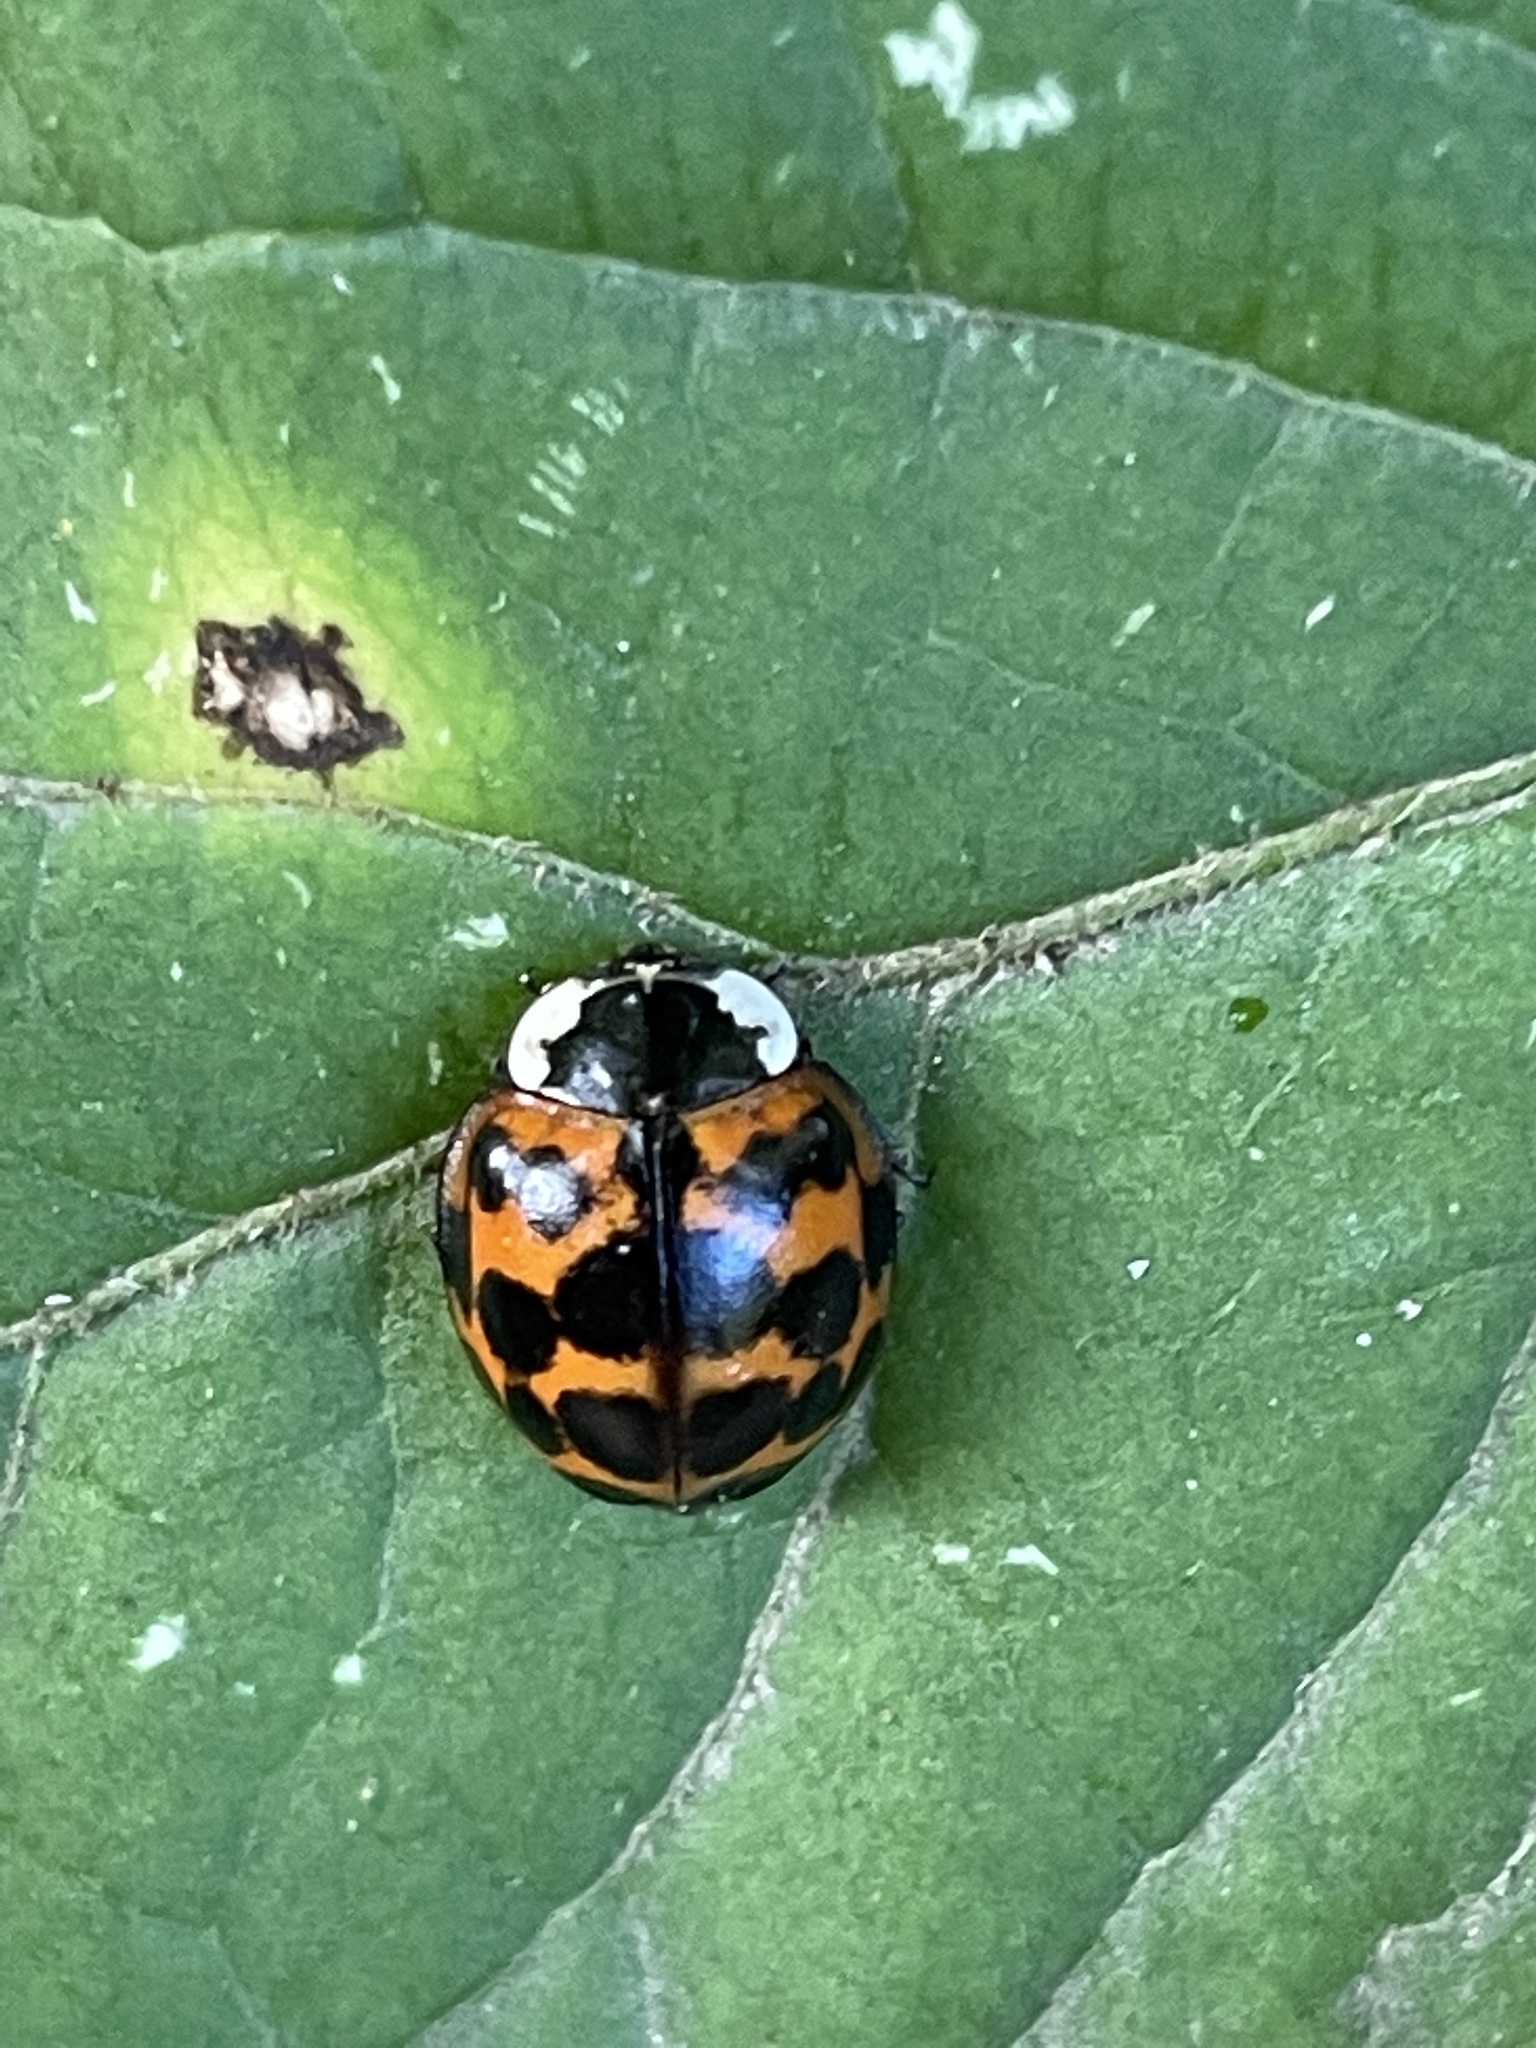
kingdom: Animalia
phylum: Arthropoda
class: Insecta
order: Coleoptera
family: Coccinellidae
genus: Harmonia
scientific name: Harmonia axyridis
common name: Harlequin ladybird
